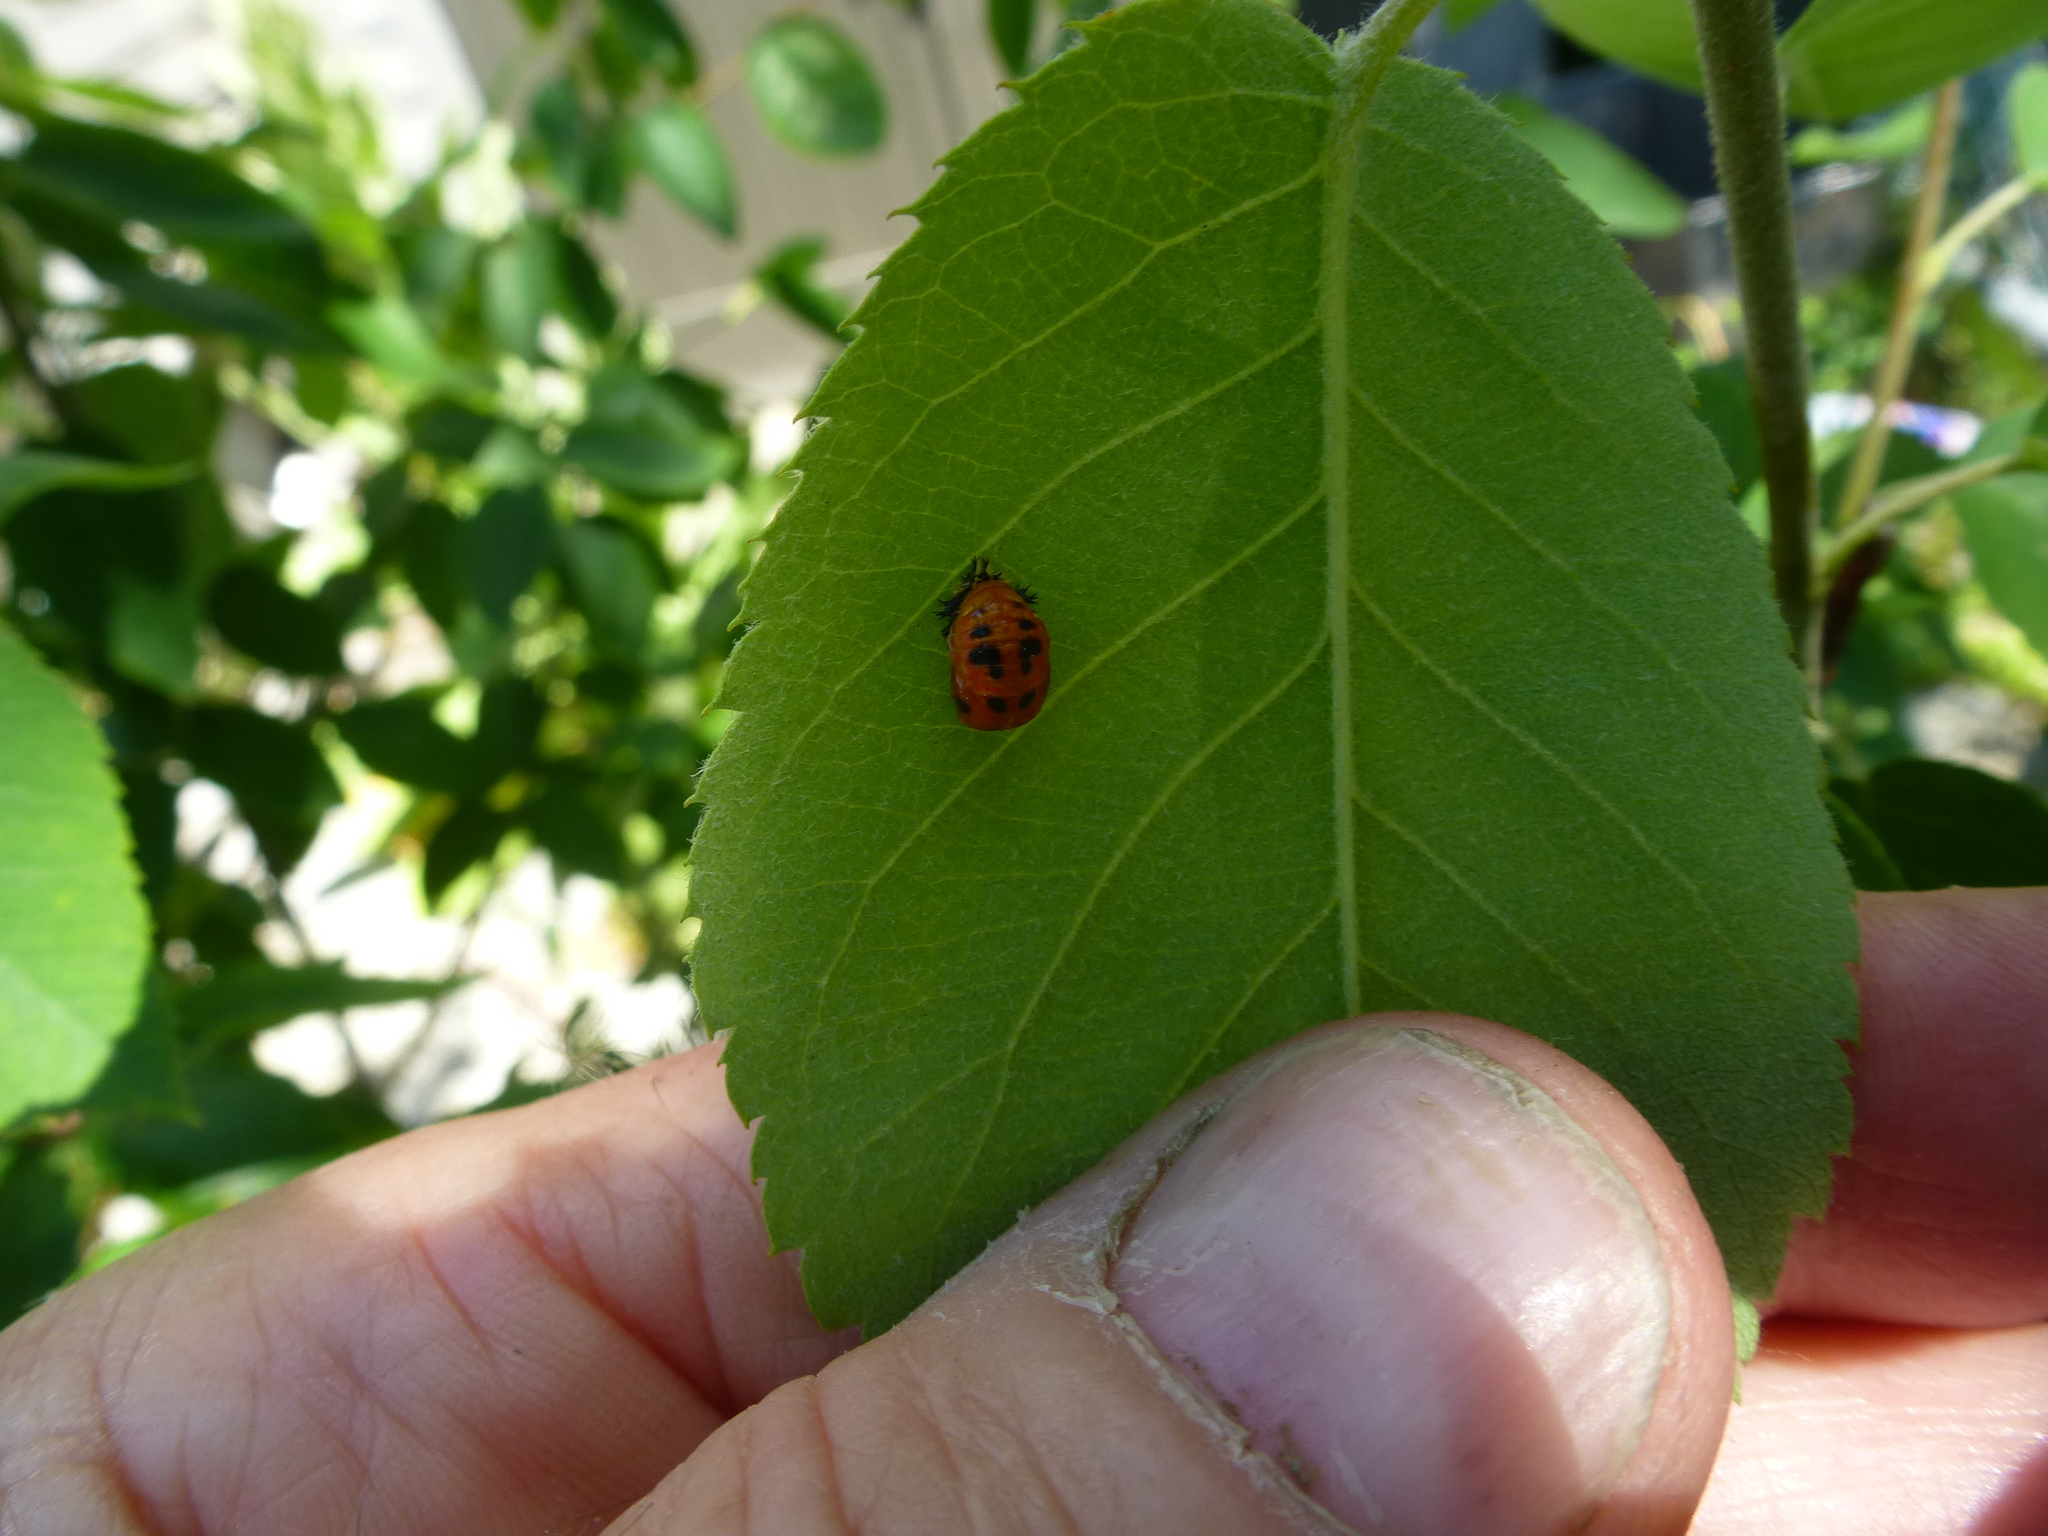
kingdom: Animalia
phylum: Arthropoda
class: Insecta
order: Coleoptera
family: Coccinellidae
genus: Harmonia
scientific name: Harmonia axyridis
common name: Harlequin ladybird
